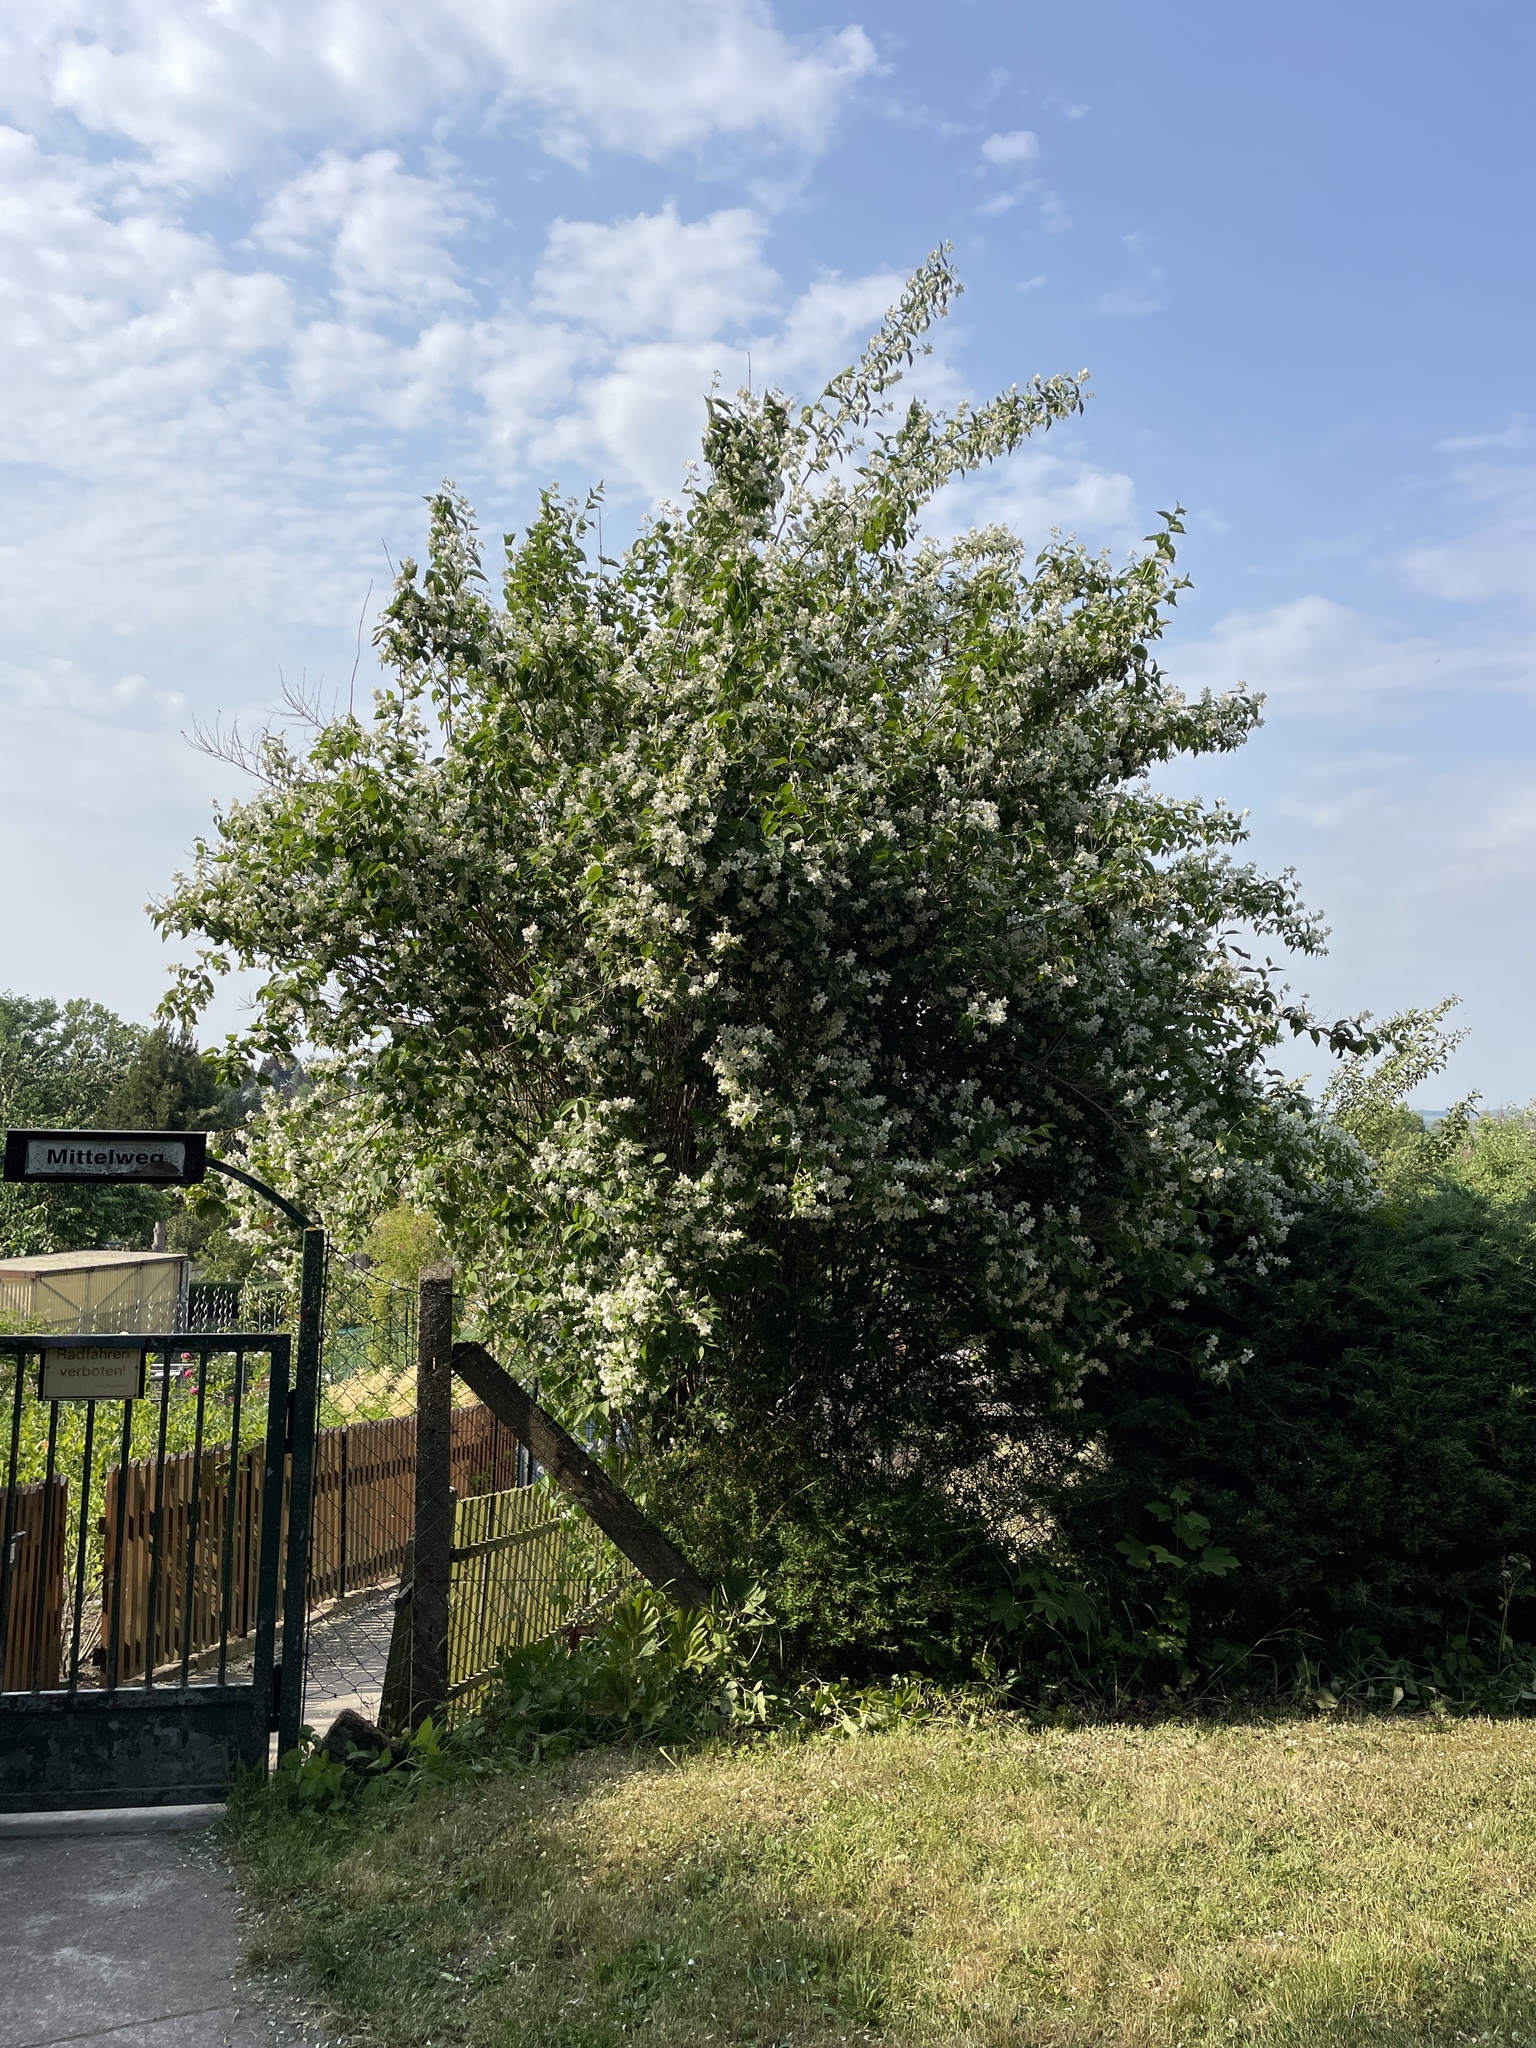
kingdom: Plantae
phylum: Tracheophyta
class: Magnoliopsida
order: Cornales
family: Hydrangeaceae
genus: Philadelphus
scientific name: Philadelphus coronarius
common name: Mock orange
